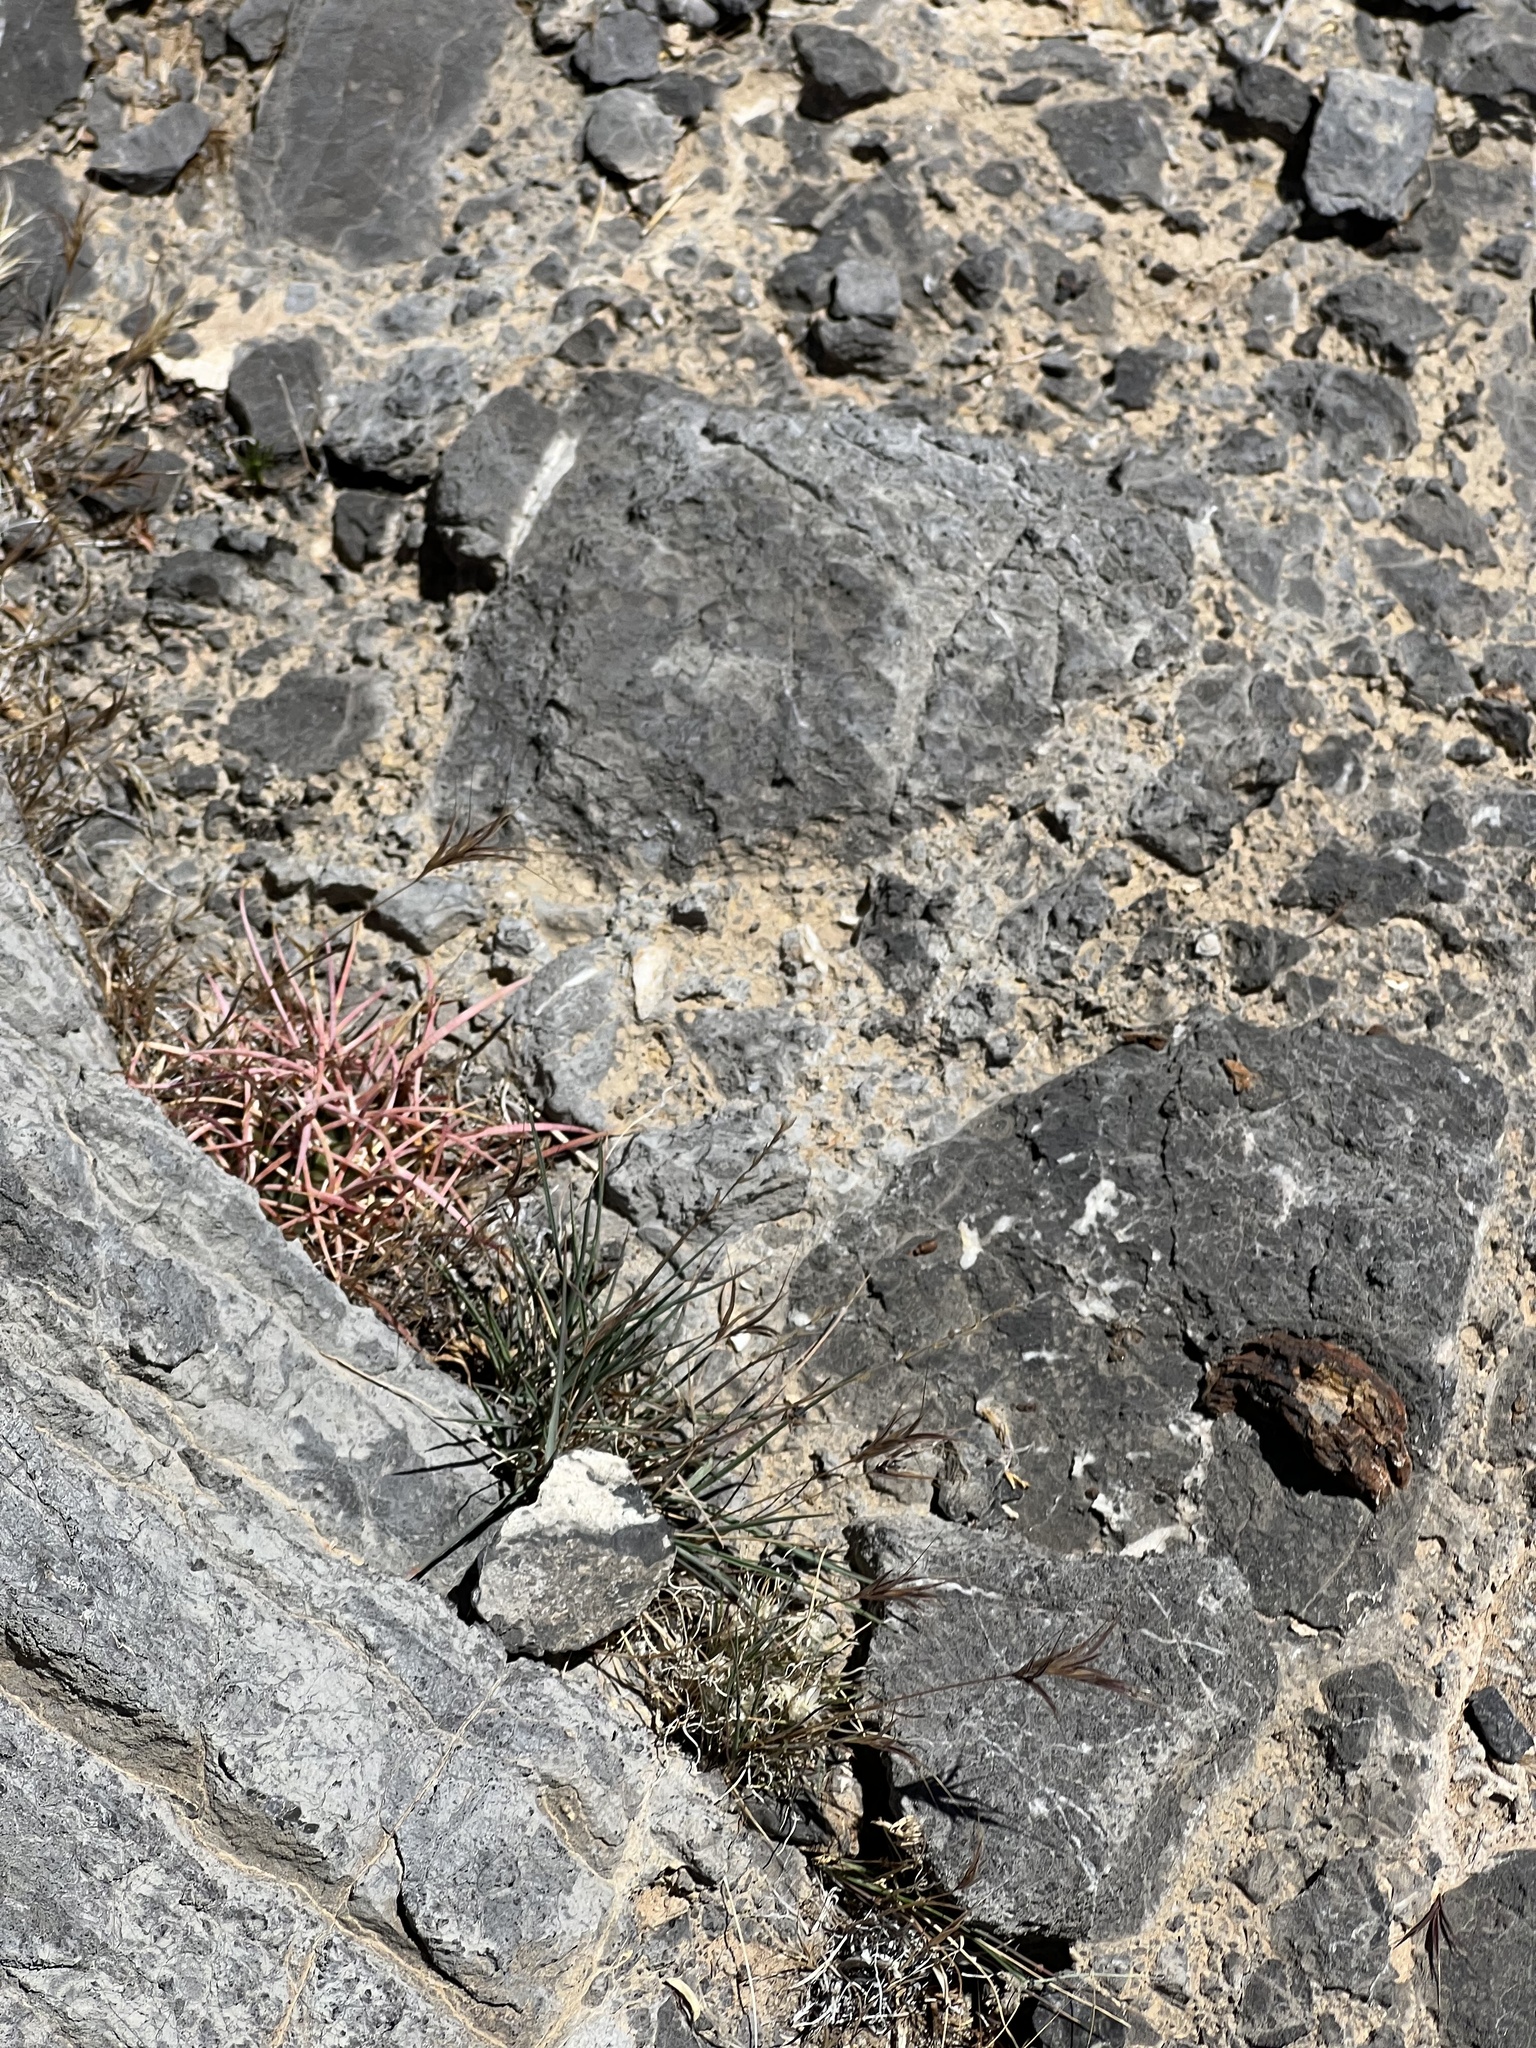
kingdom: Plantae
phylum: Tracheophyta
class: Magnoliopsida
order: Caryophyllales
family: Cactaceae
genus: Ferocactus
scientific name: Ferocactus cylindraceus
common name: California barrel cactus
